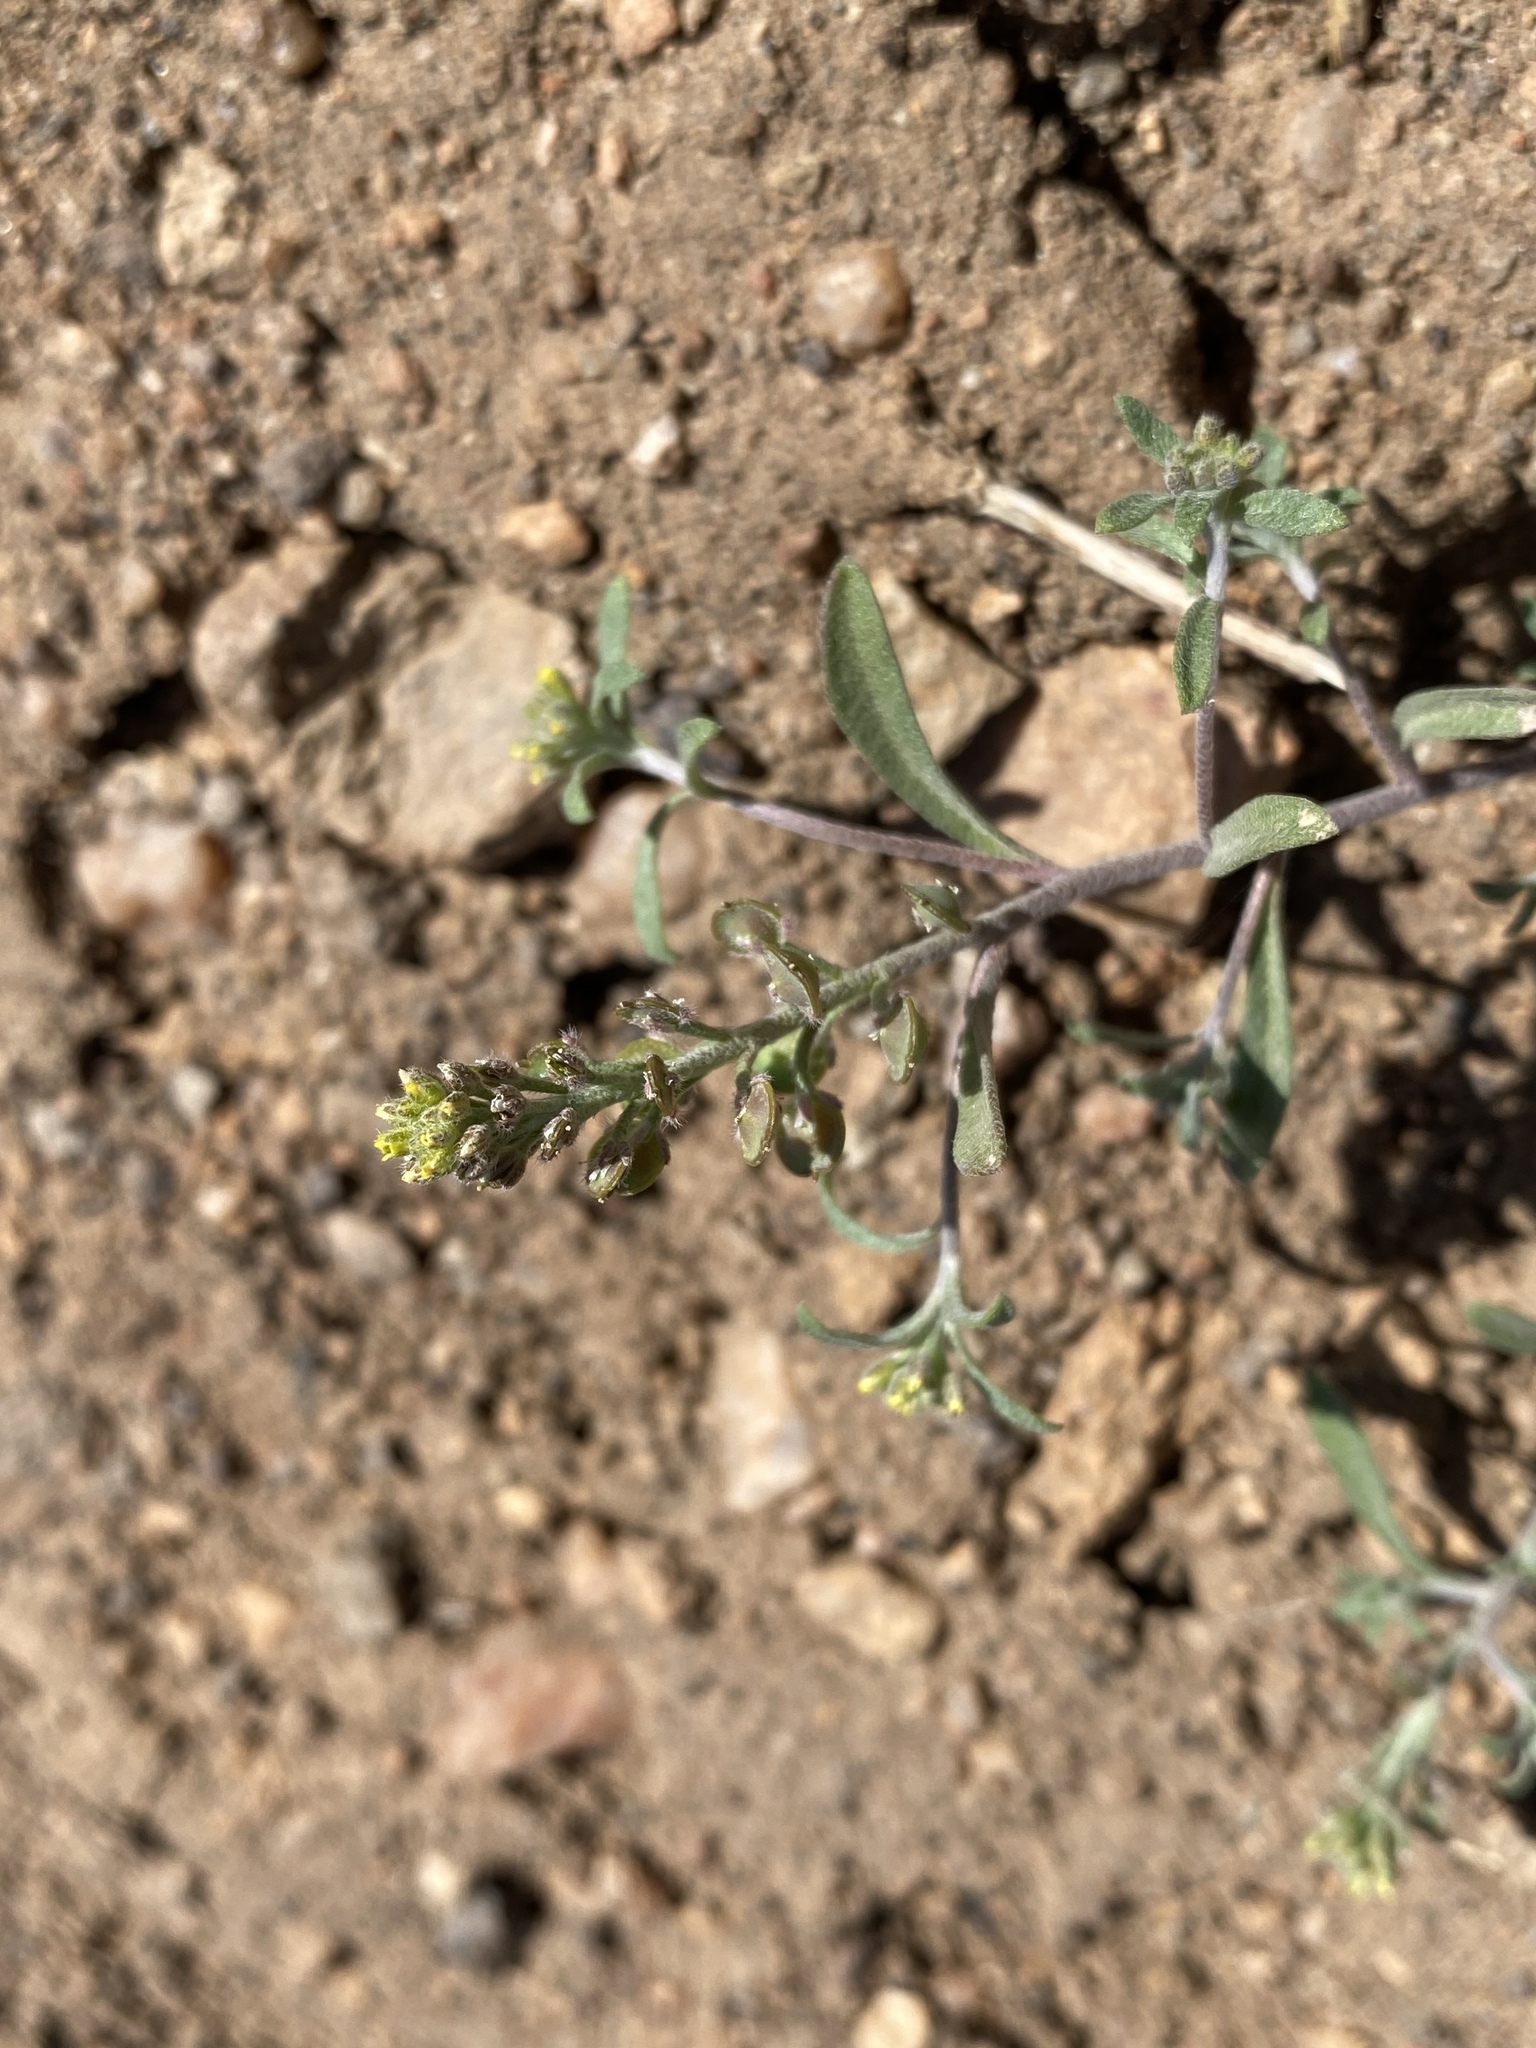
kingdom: Plantae
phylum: Tracheophyta
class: Magnoliopsida
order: Brassicales
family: Brassicaceae
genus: Alyssum
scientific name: Alyssum turkestanicum
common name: Desert alyssum
